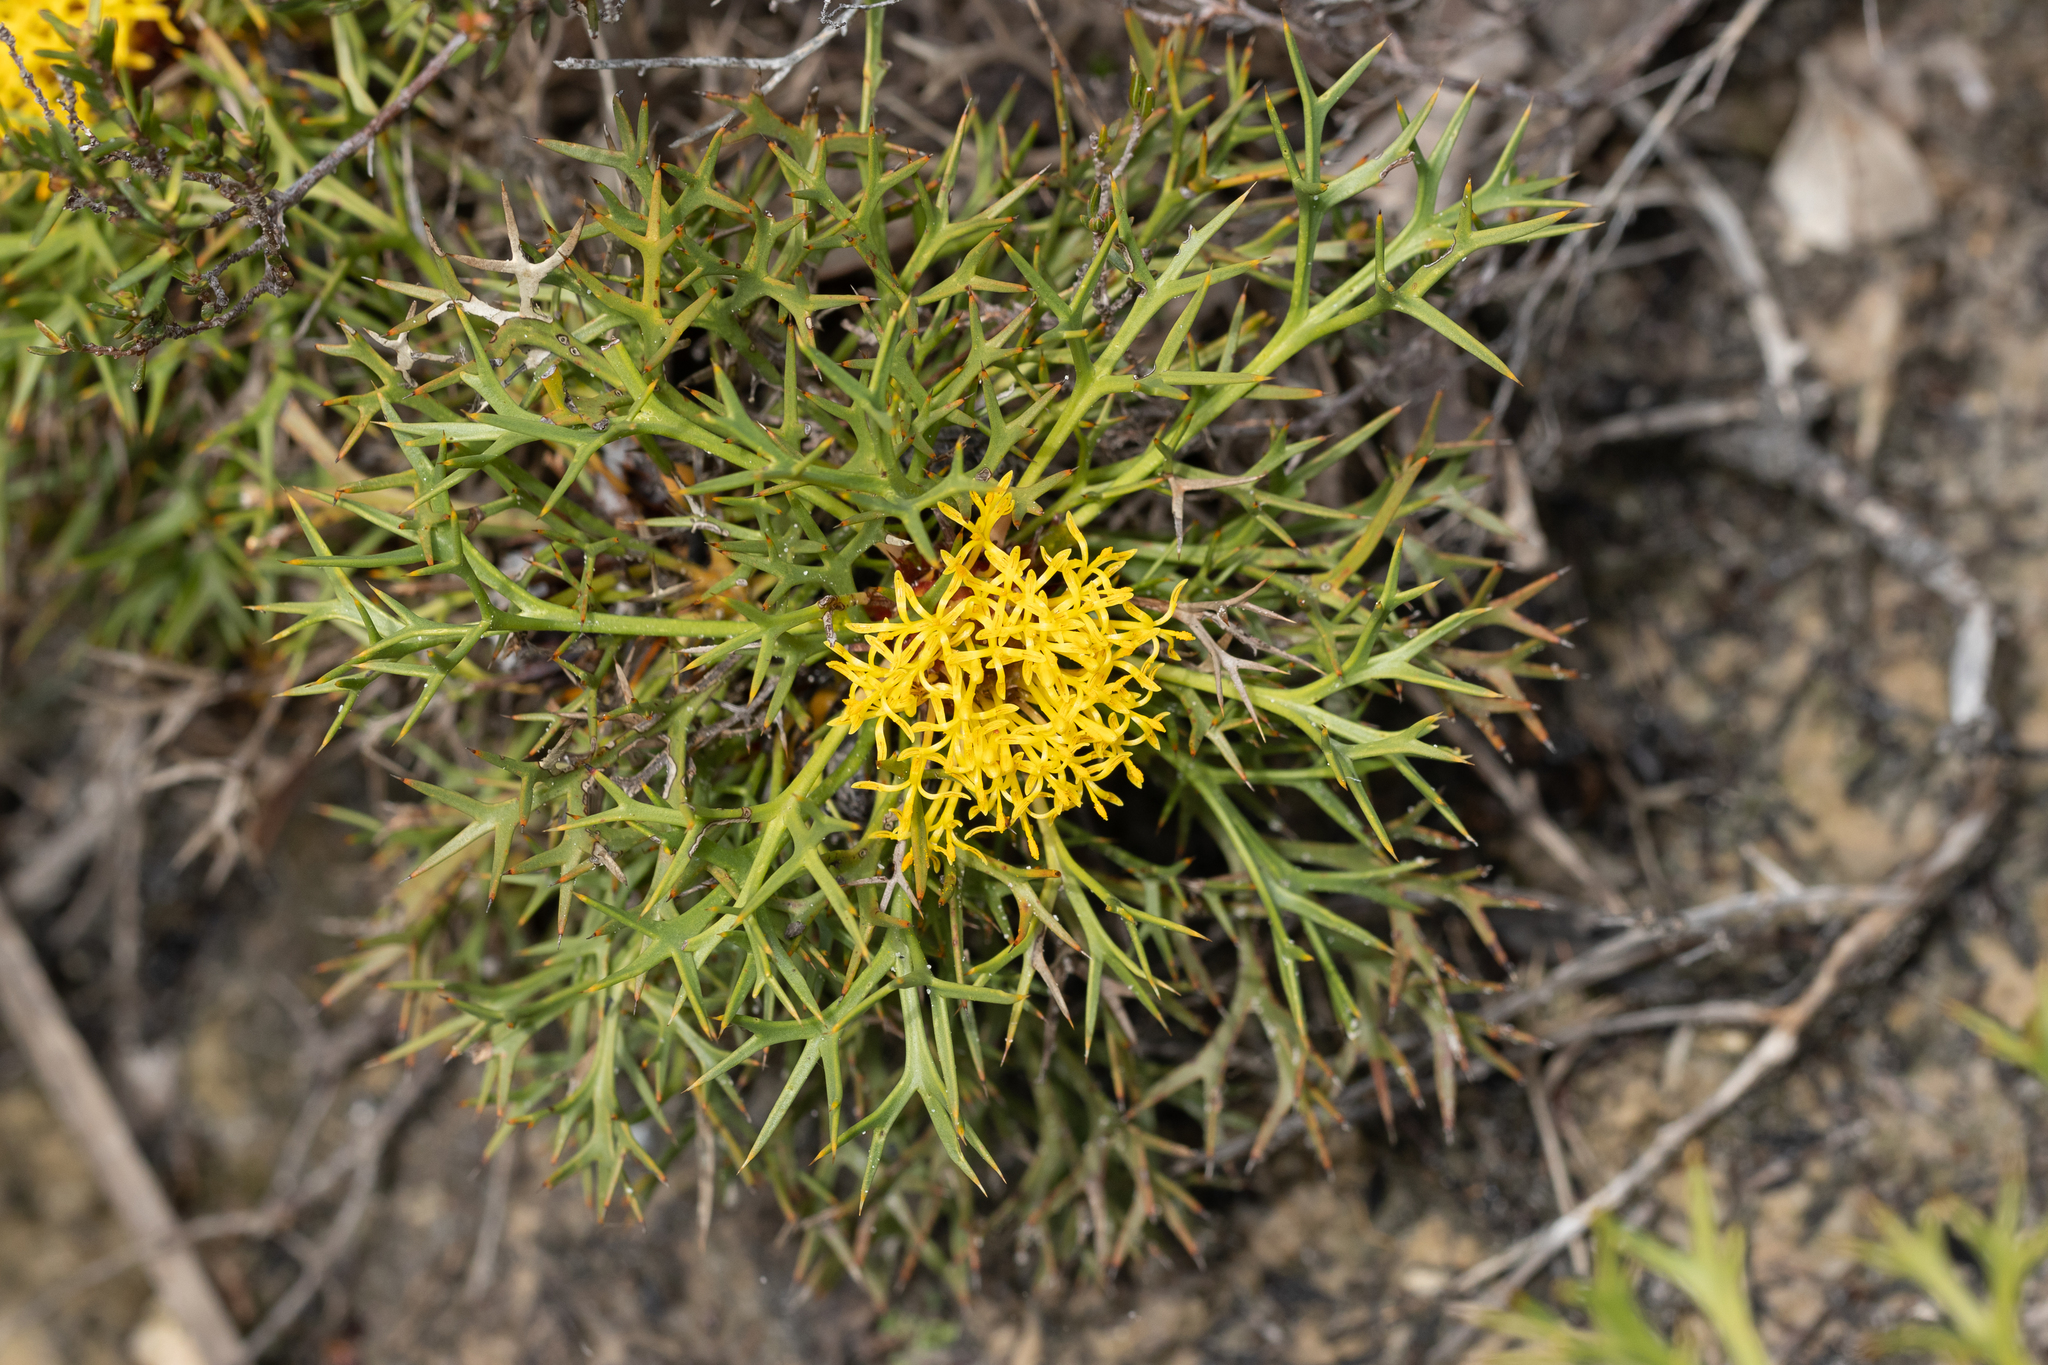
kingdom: Plantae
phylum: Tracheophyta
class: Magnoliopsida
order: Proteales
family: Proteaceae
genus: Isopogon
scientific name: Isopogon ceratophyllus
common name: Horny cone-bush
